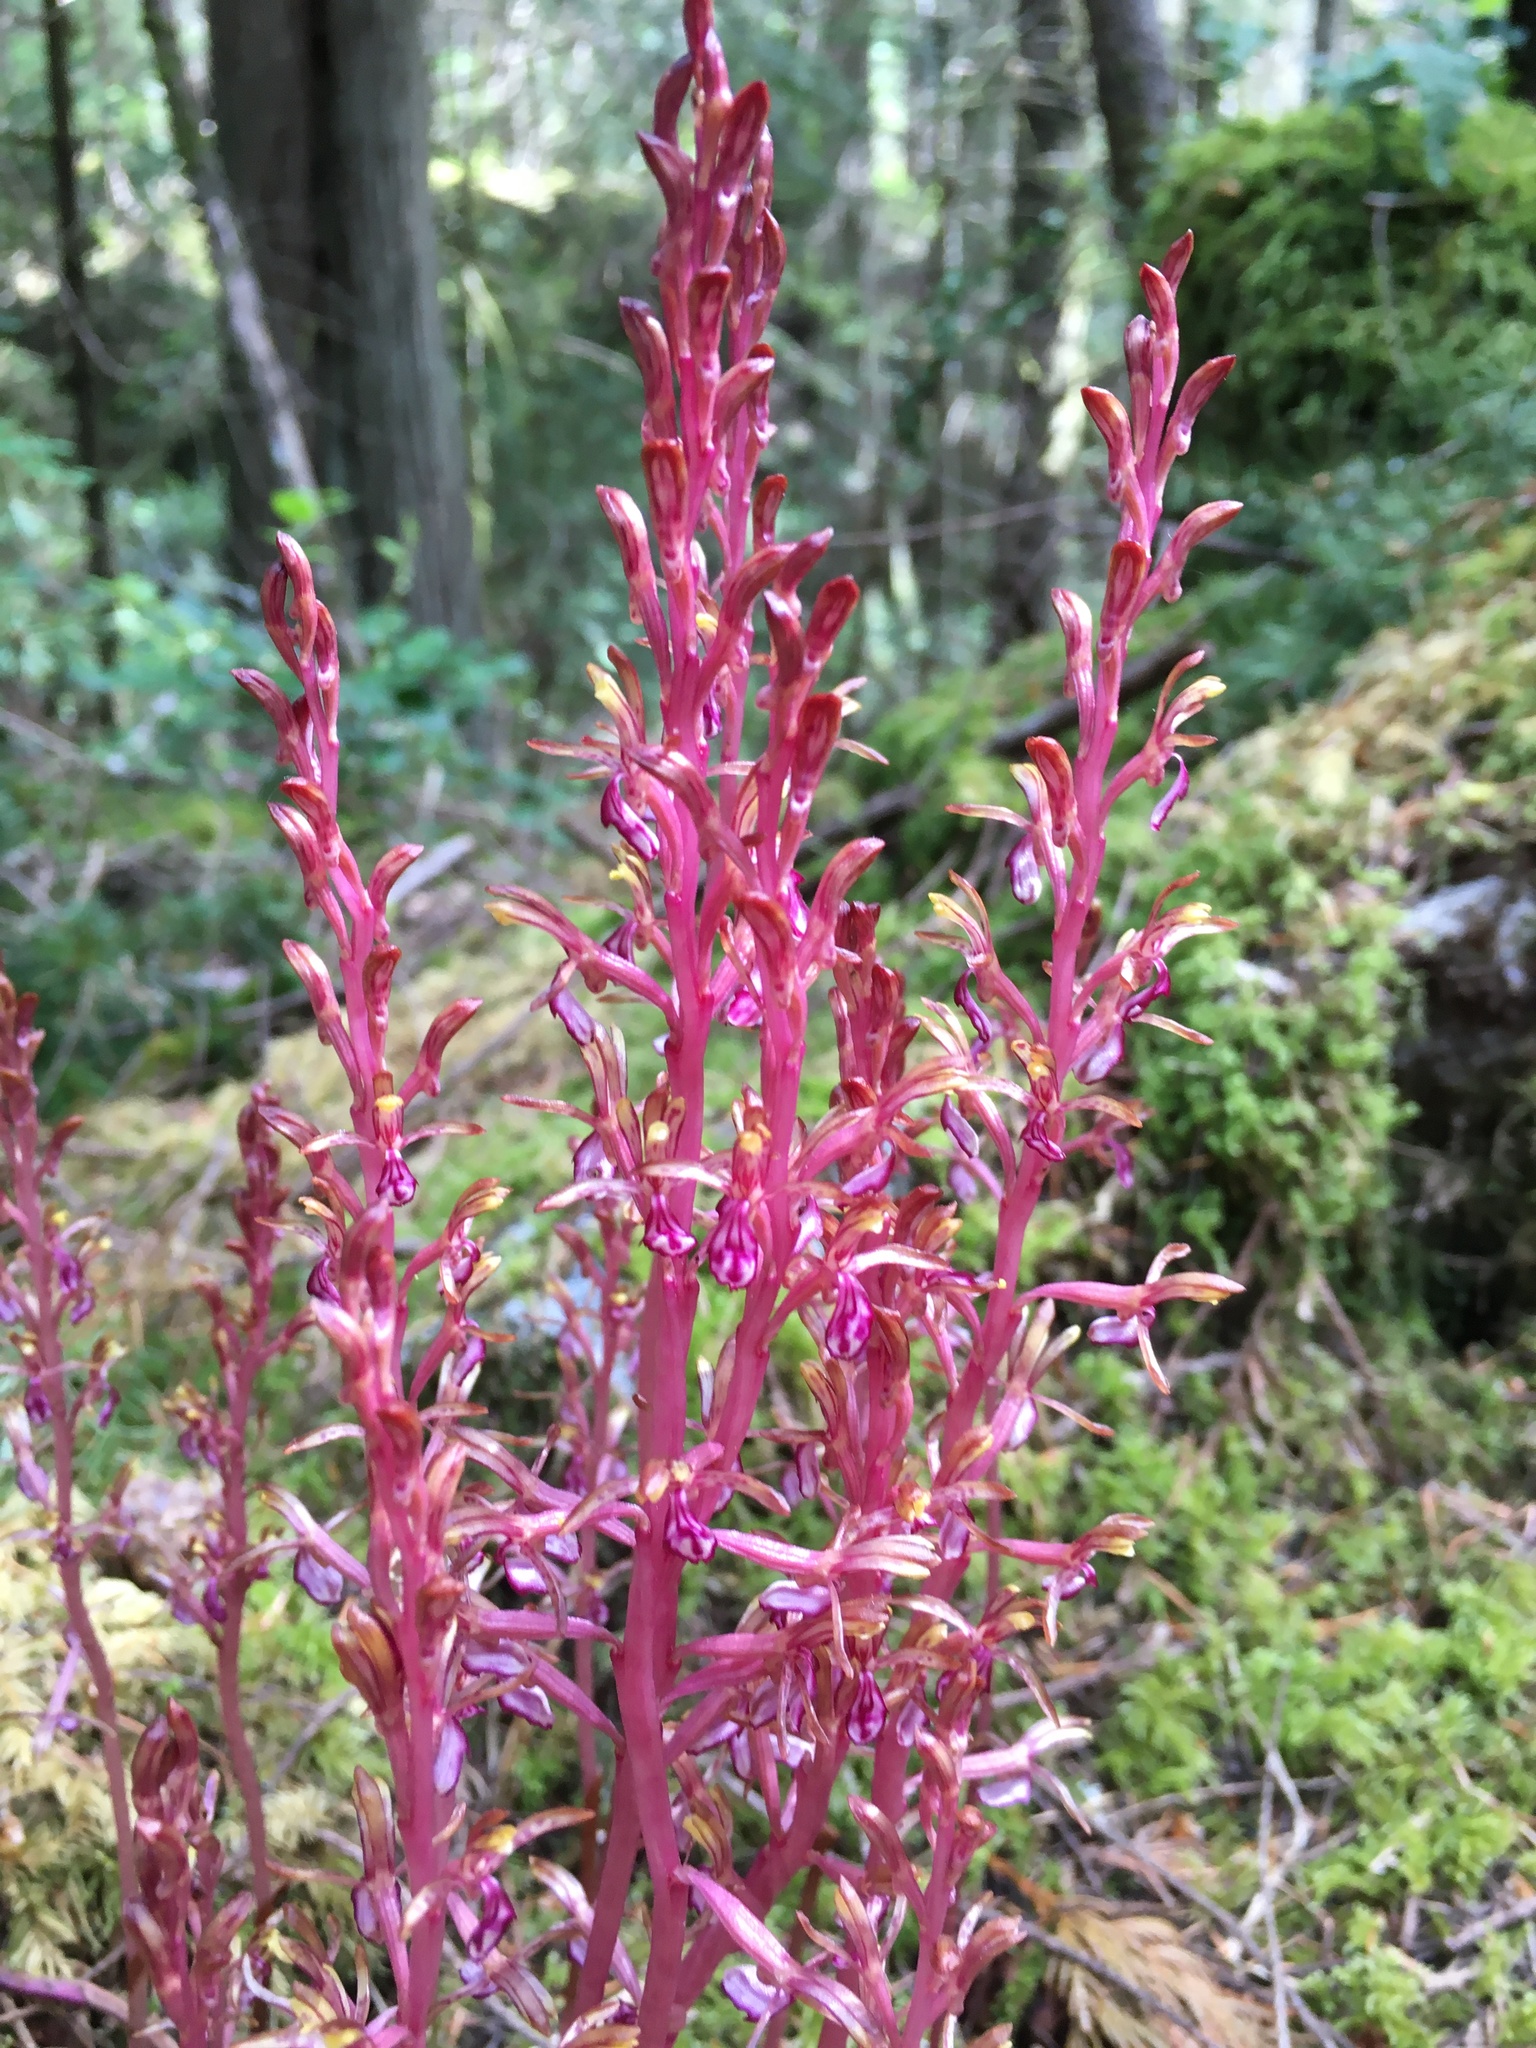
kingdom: Plantae
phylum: Tracheophyta
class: Liliopsida
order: Asparagales
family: Orchidaceae
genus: Corallorhiza
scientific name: Corallorhiza mertensiana
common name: Pacific coralroot
